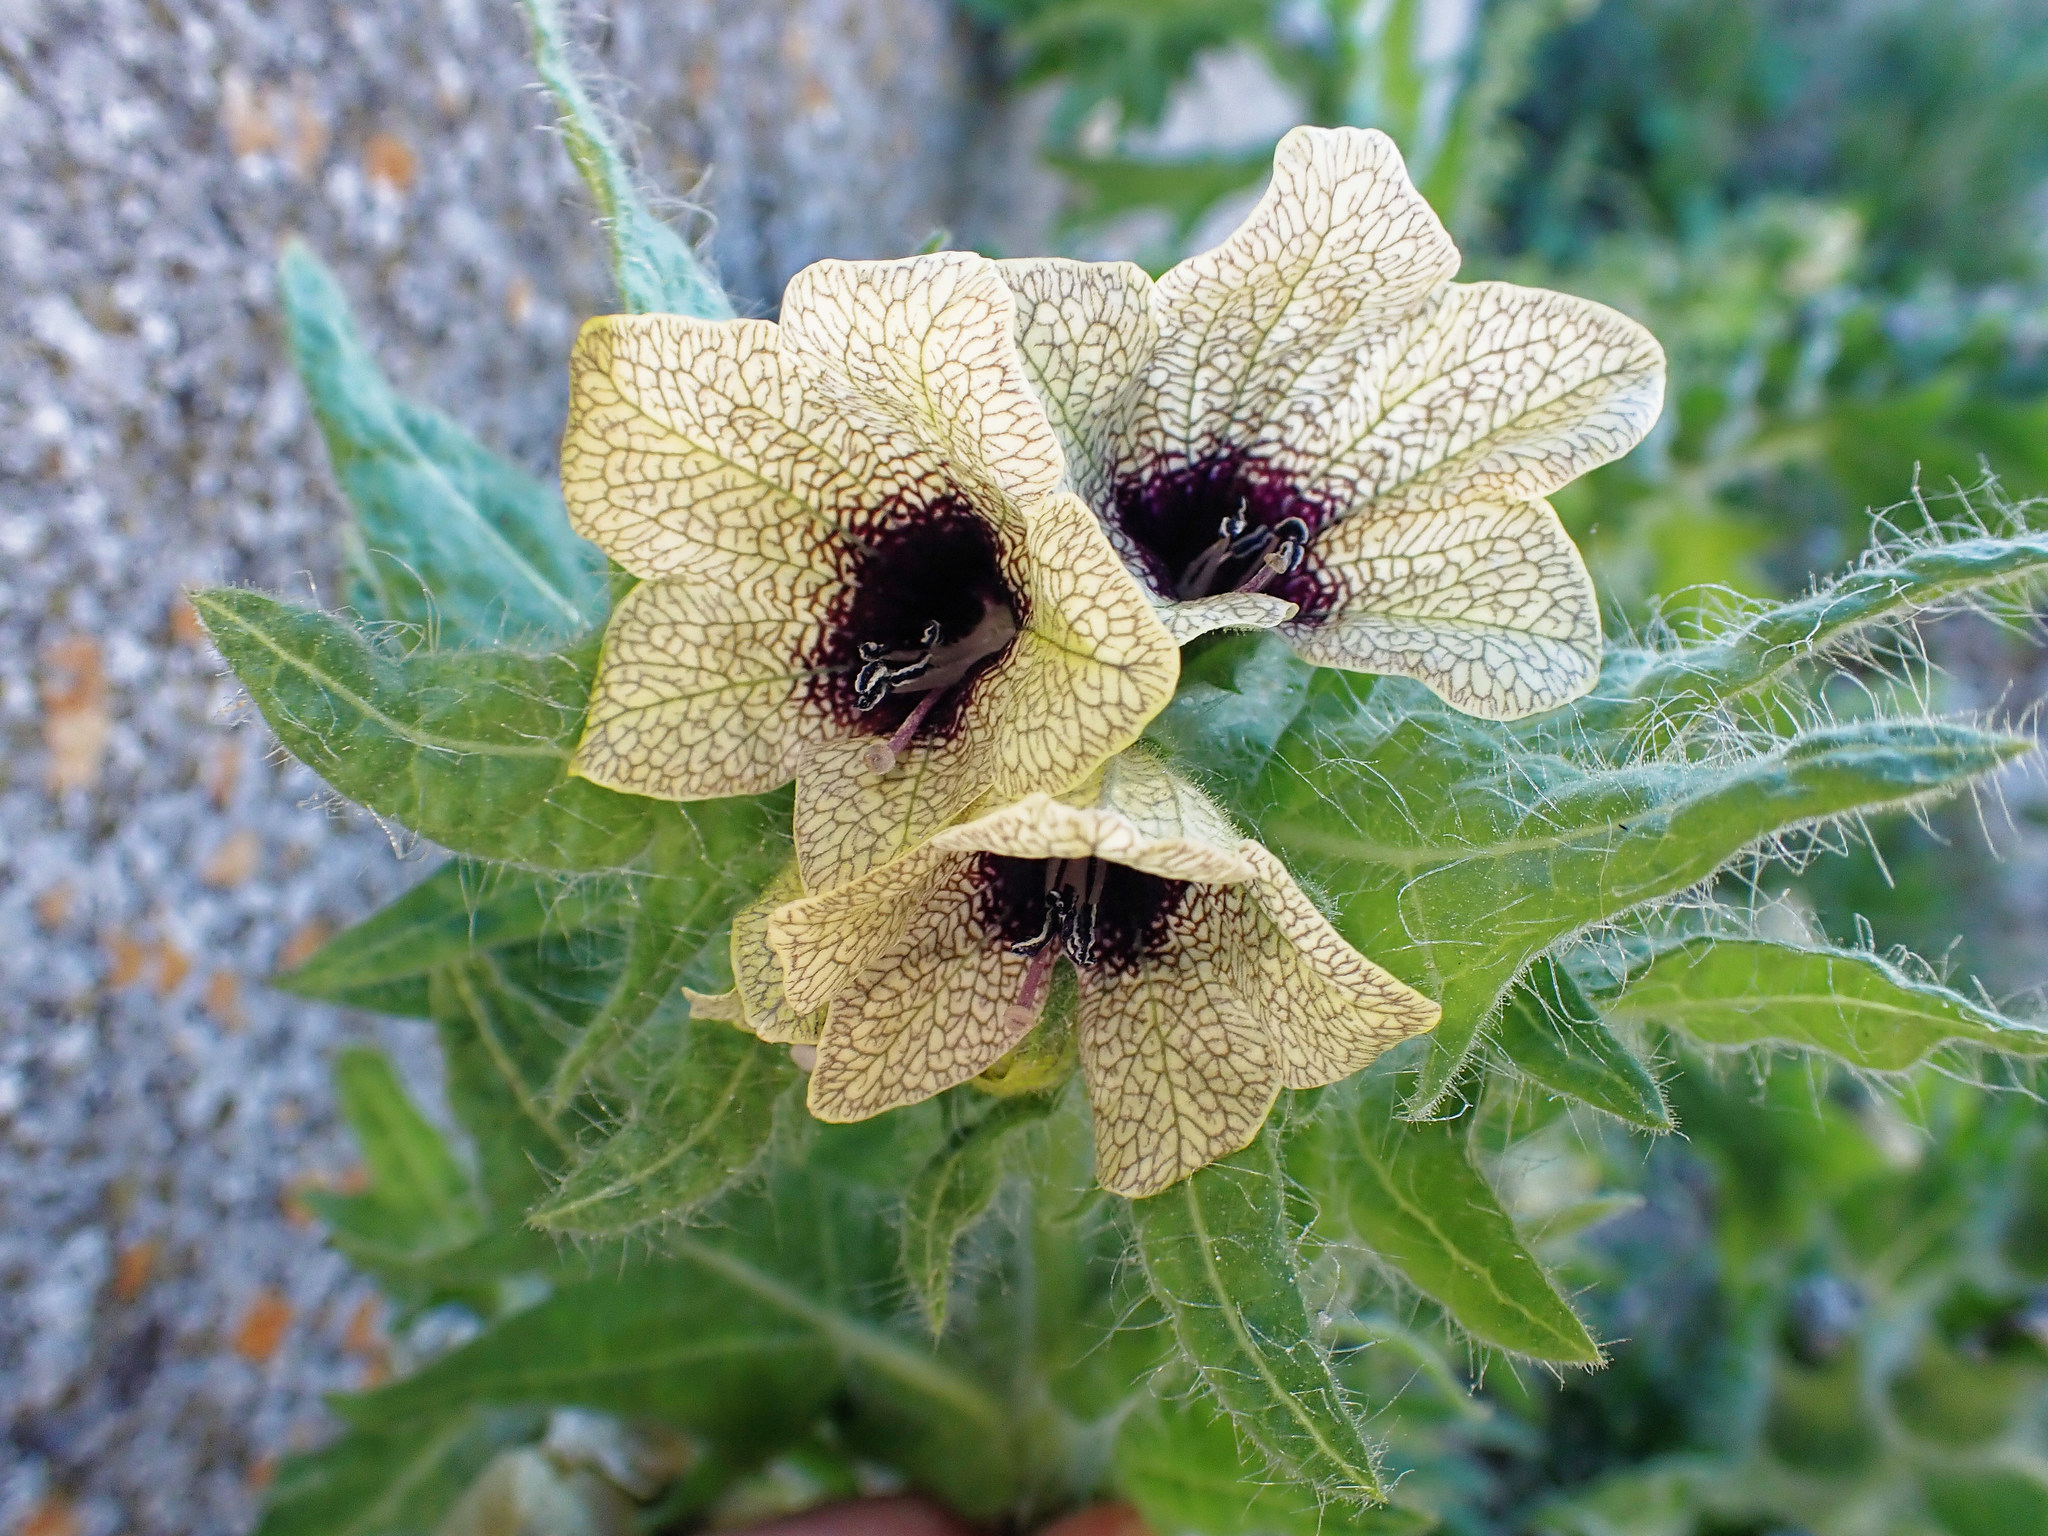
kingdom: Plantae
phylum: Tracheophyta
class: Magnoliopsida
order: Solanales
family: Solanaceae
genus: Hyoscyamus
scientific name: Hyoscyamus niger
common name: Henbane
